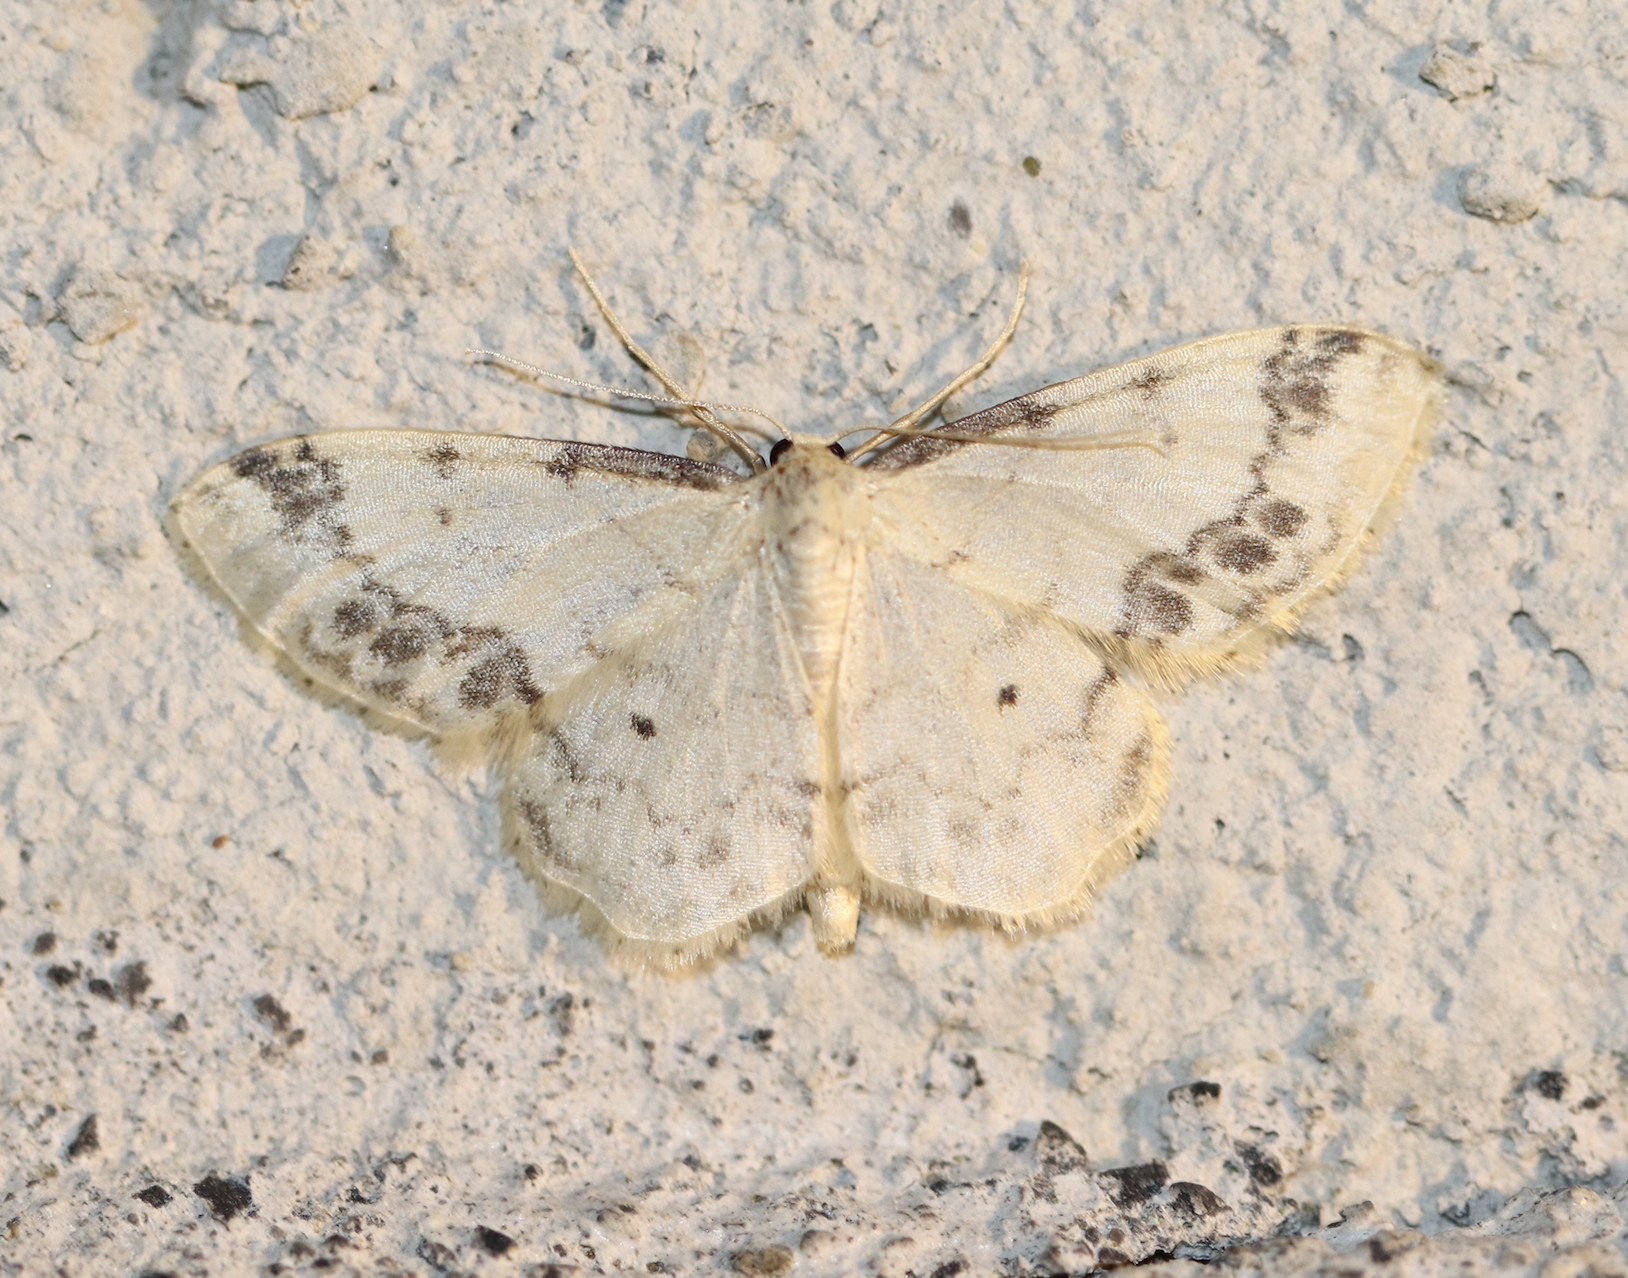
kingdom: Animalia
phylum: Arthropoda
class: Insecta
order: Lepidoptera
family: Geometridae
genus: Idaea
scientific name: Idaea trigeminata
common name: Treble brown spot
